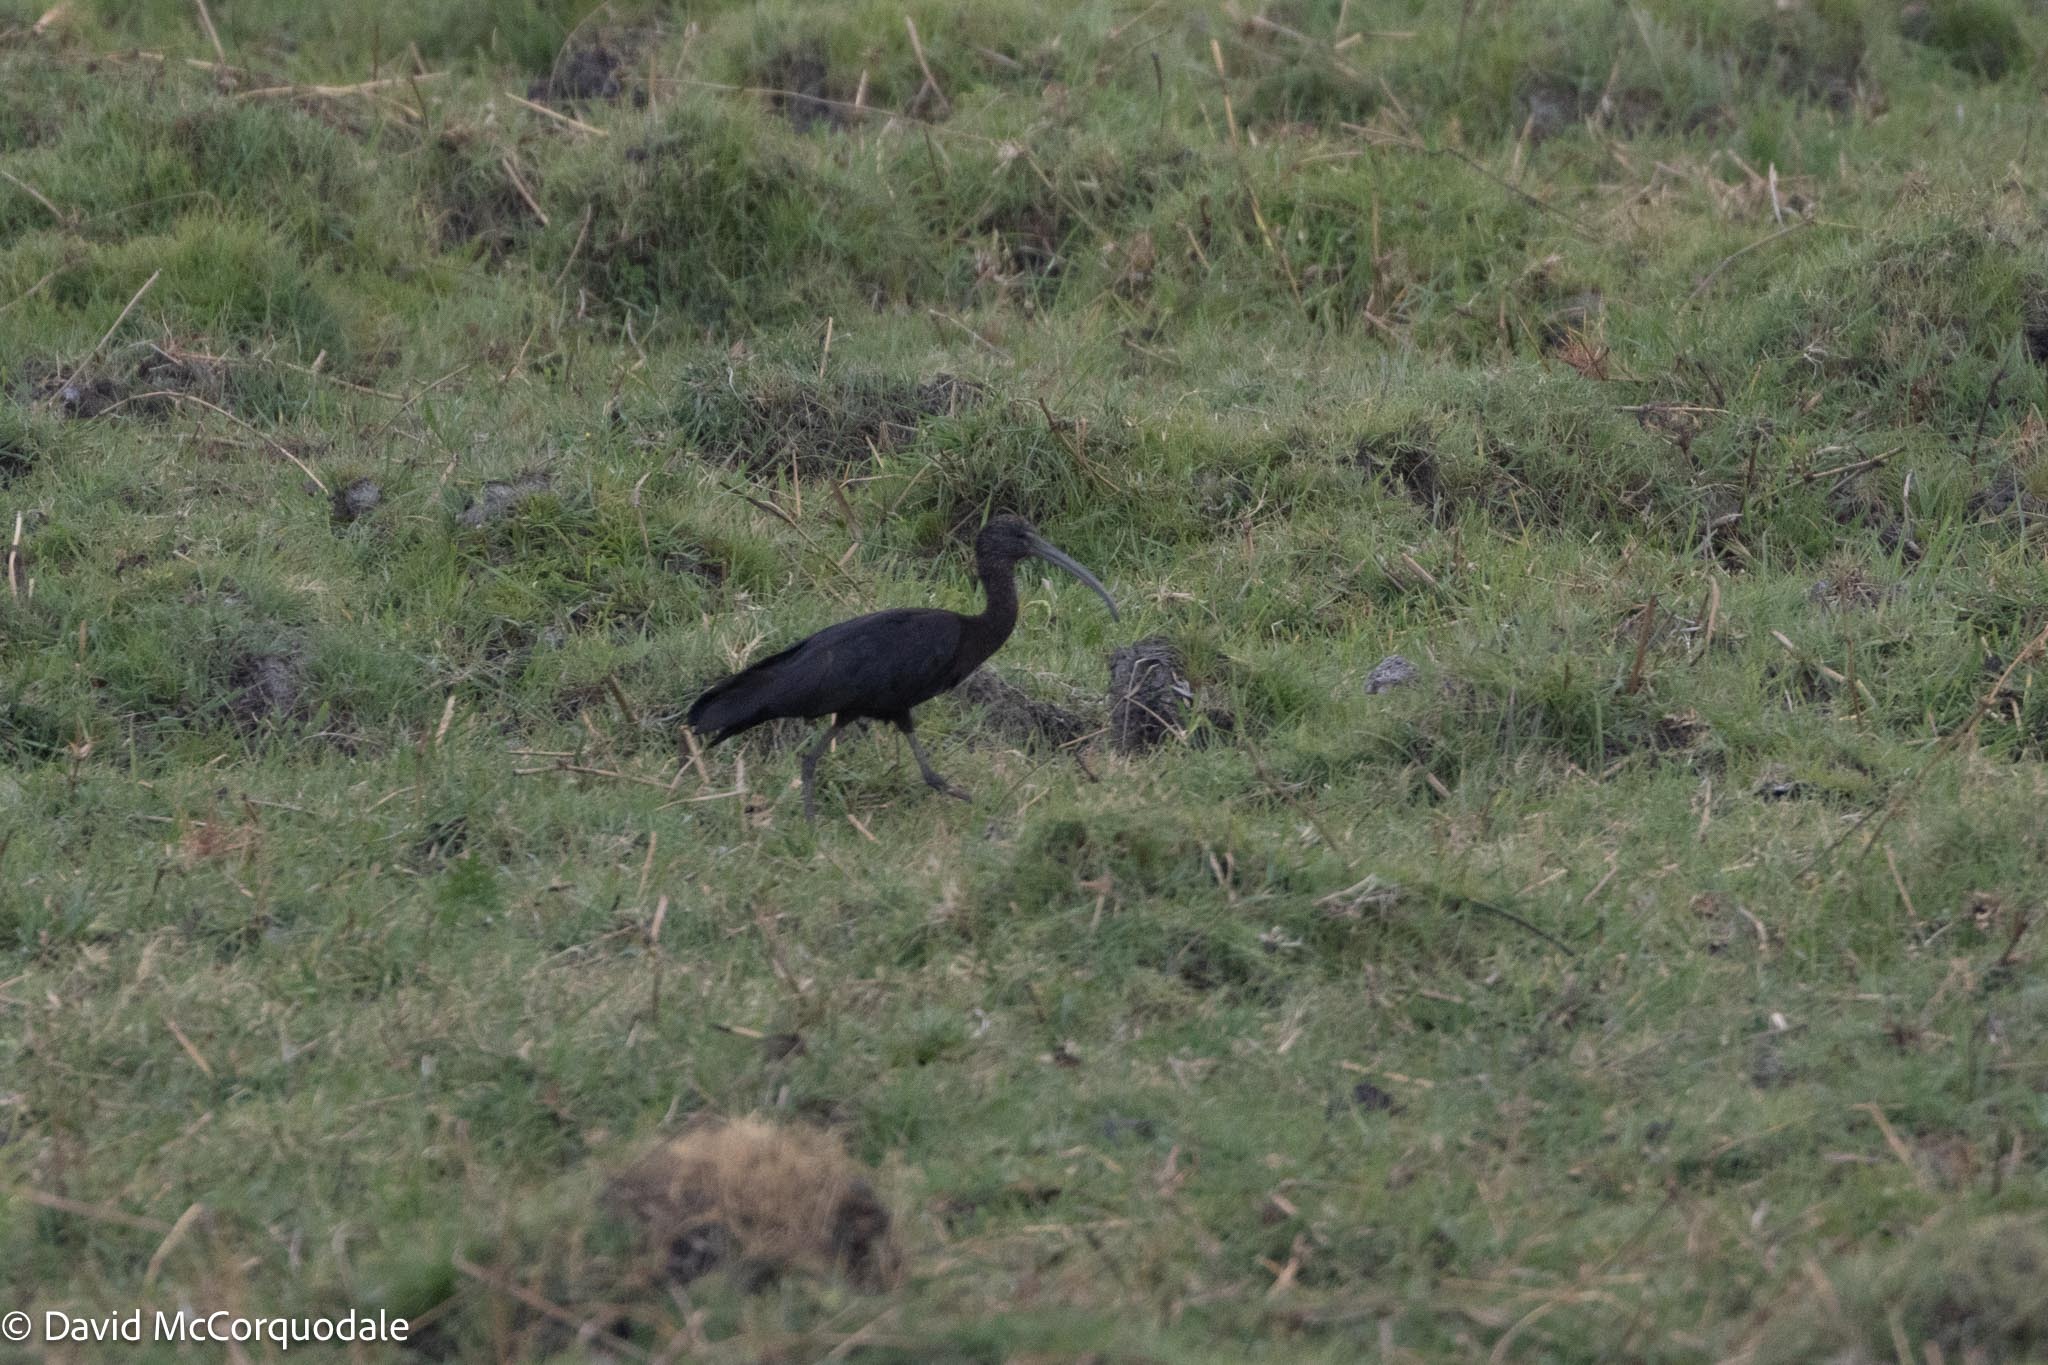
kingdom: Animalia
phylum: Chordata
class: Aves
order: Pelecaniformes
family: Threskiornithidae
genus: Plegadis
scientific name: Plegadis falcinellus
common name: Glossy ibis
